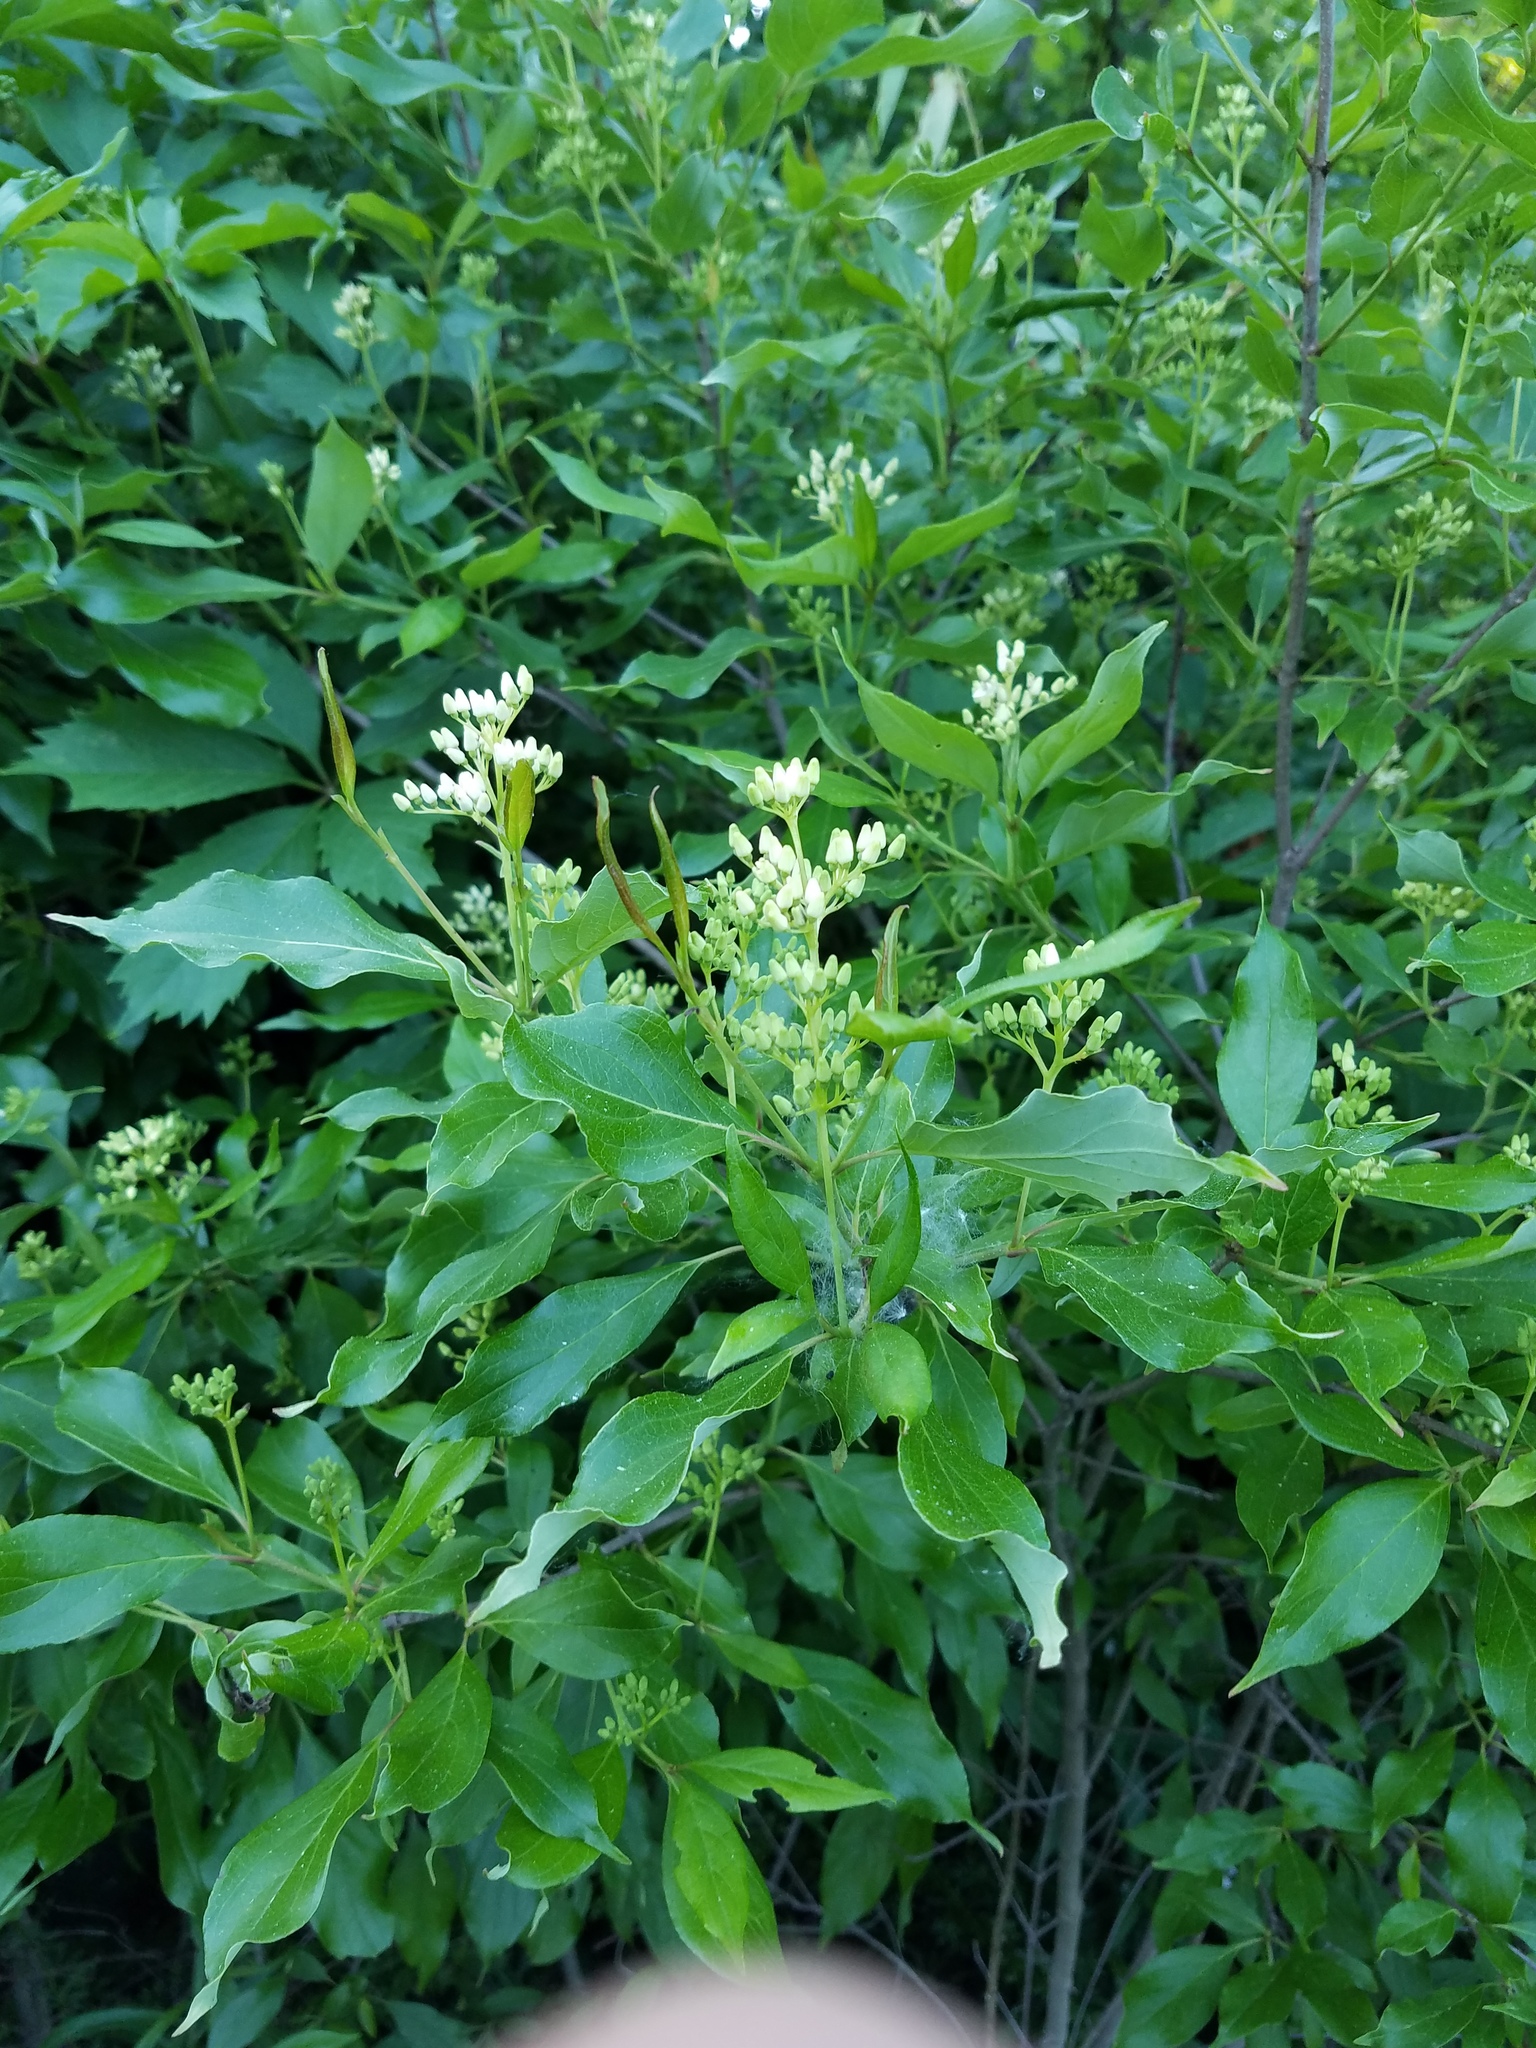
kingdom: Plantae
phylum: Tracheophyta
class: Magnoliopsida
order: Cornales
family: Cornaceae
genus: Cornus
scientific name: Cornus racemosa
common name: Panicled dogwood
